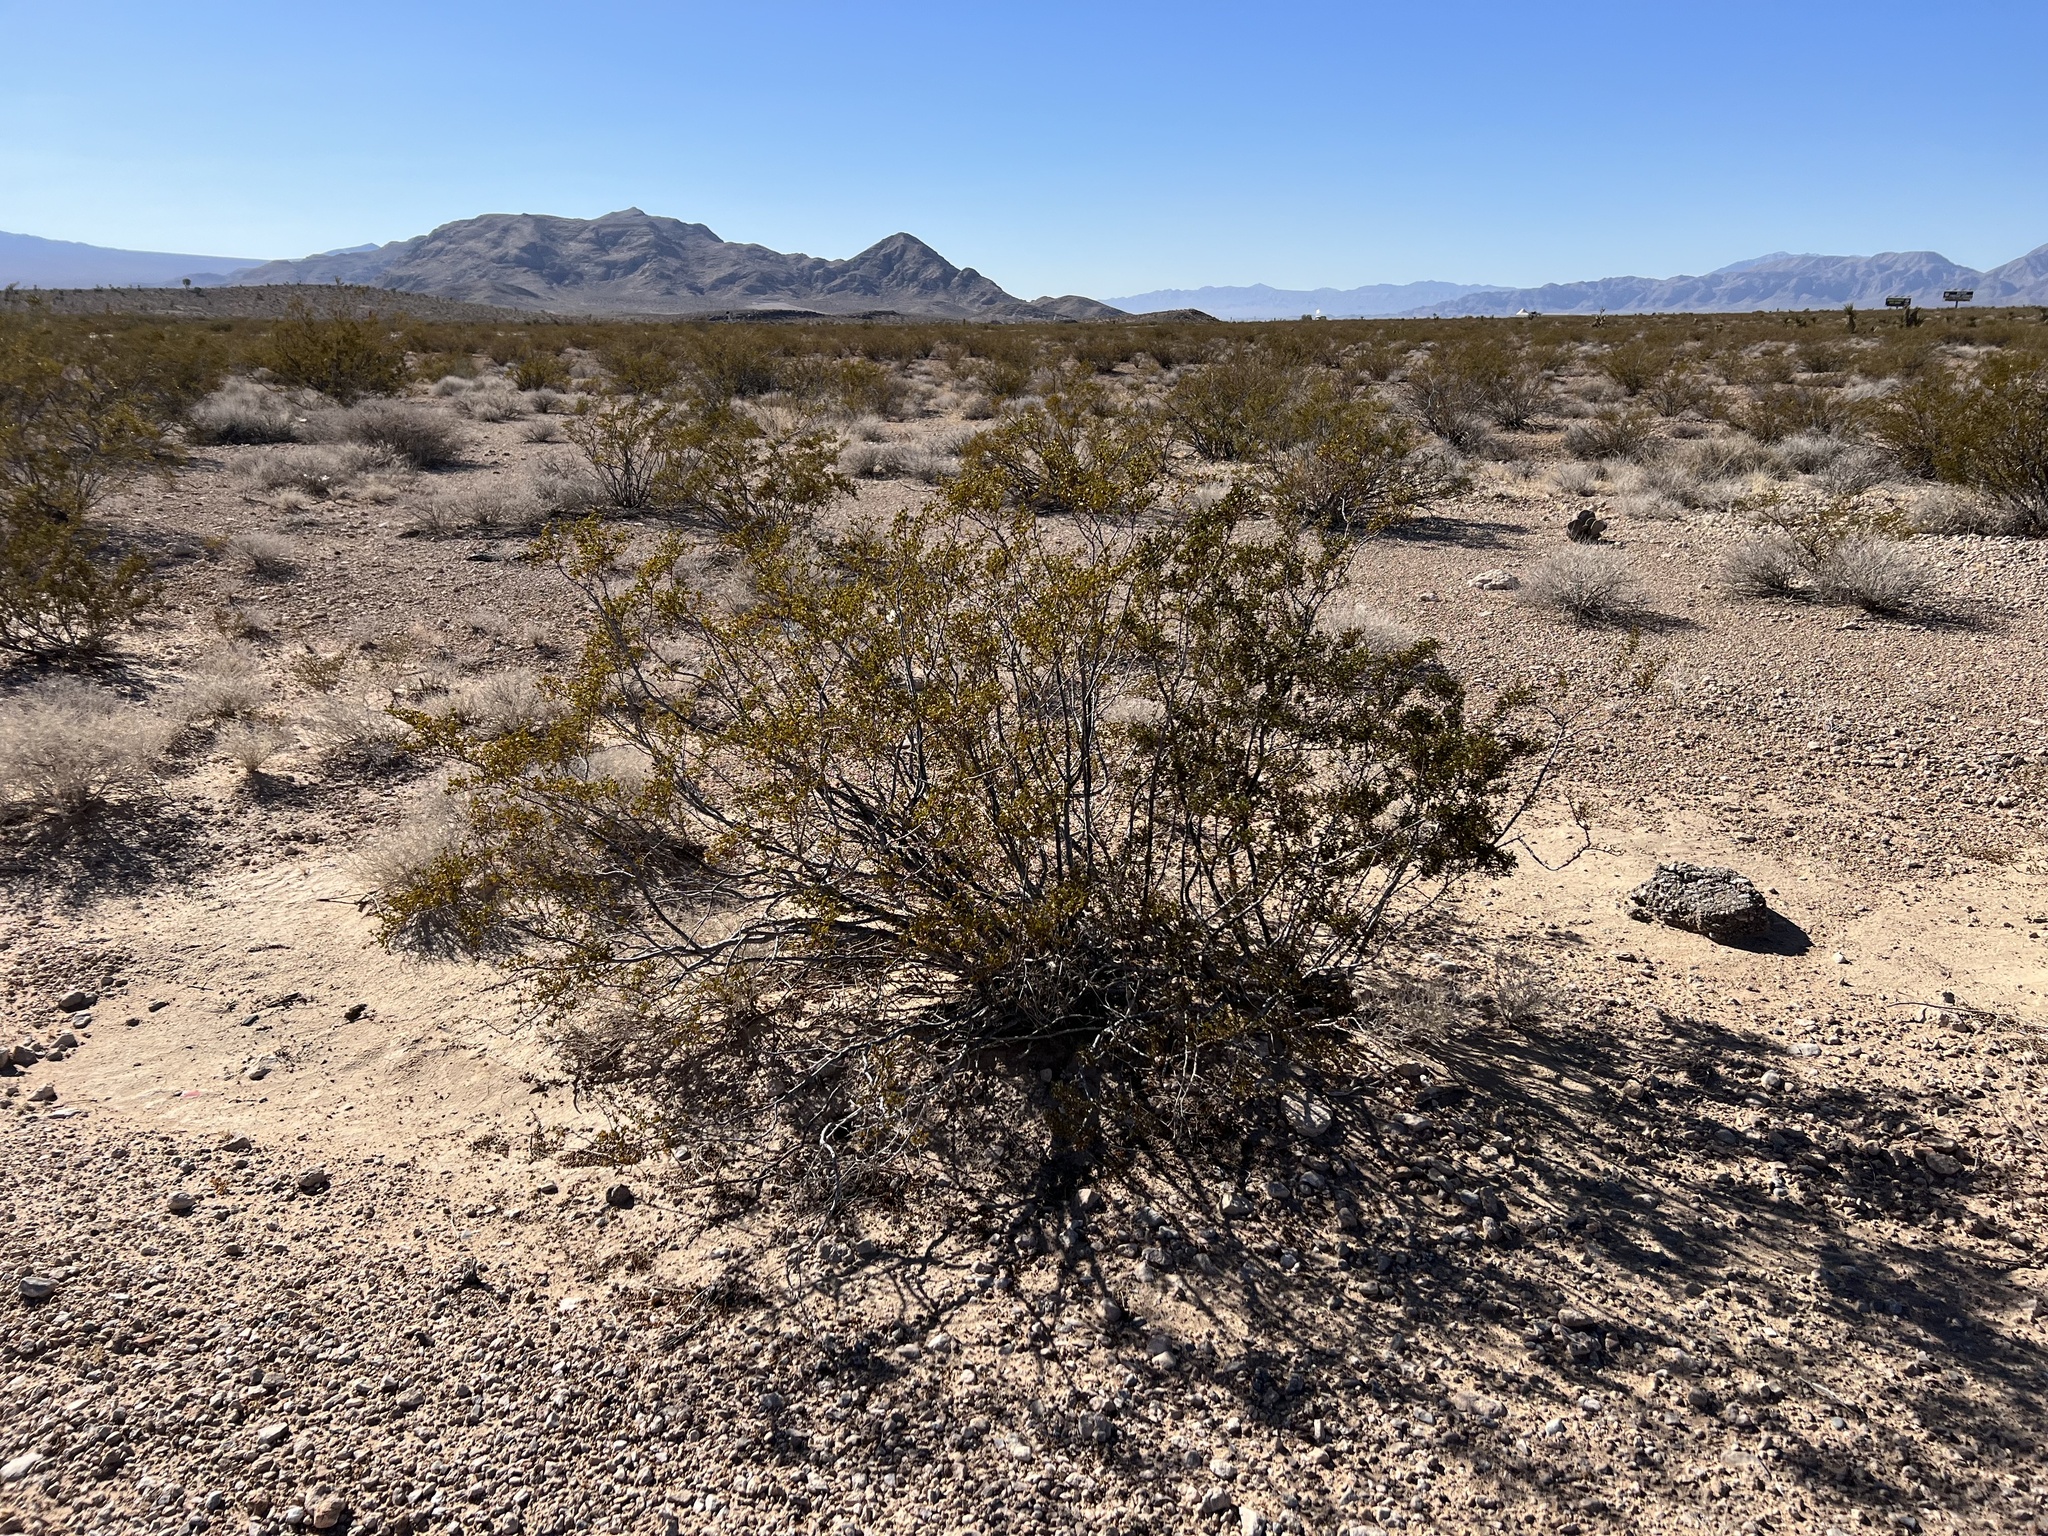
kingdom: Plantae
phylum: Tracheophyta
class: Magnoliopsida
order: Zygophyllales
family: Zygophyllaceae
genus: Larrea
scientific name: Larrea tridentata
